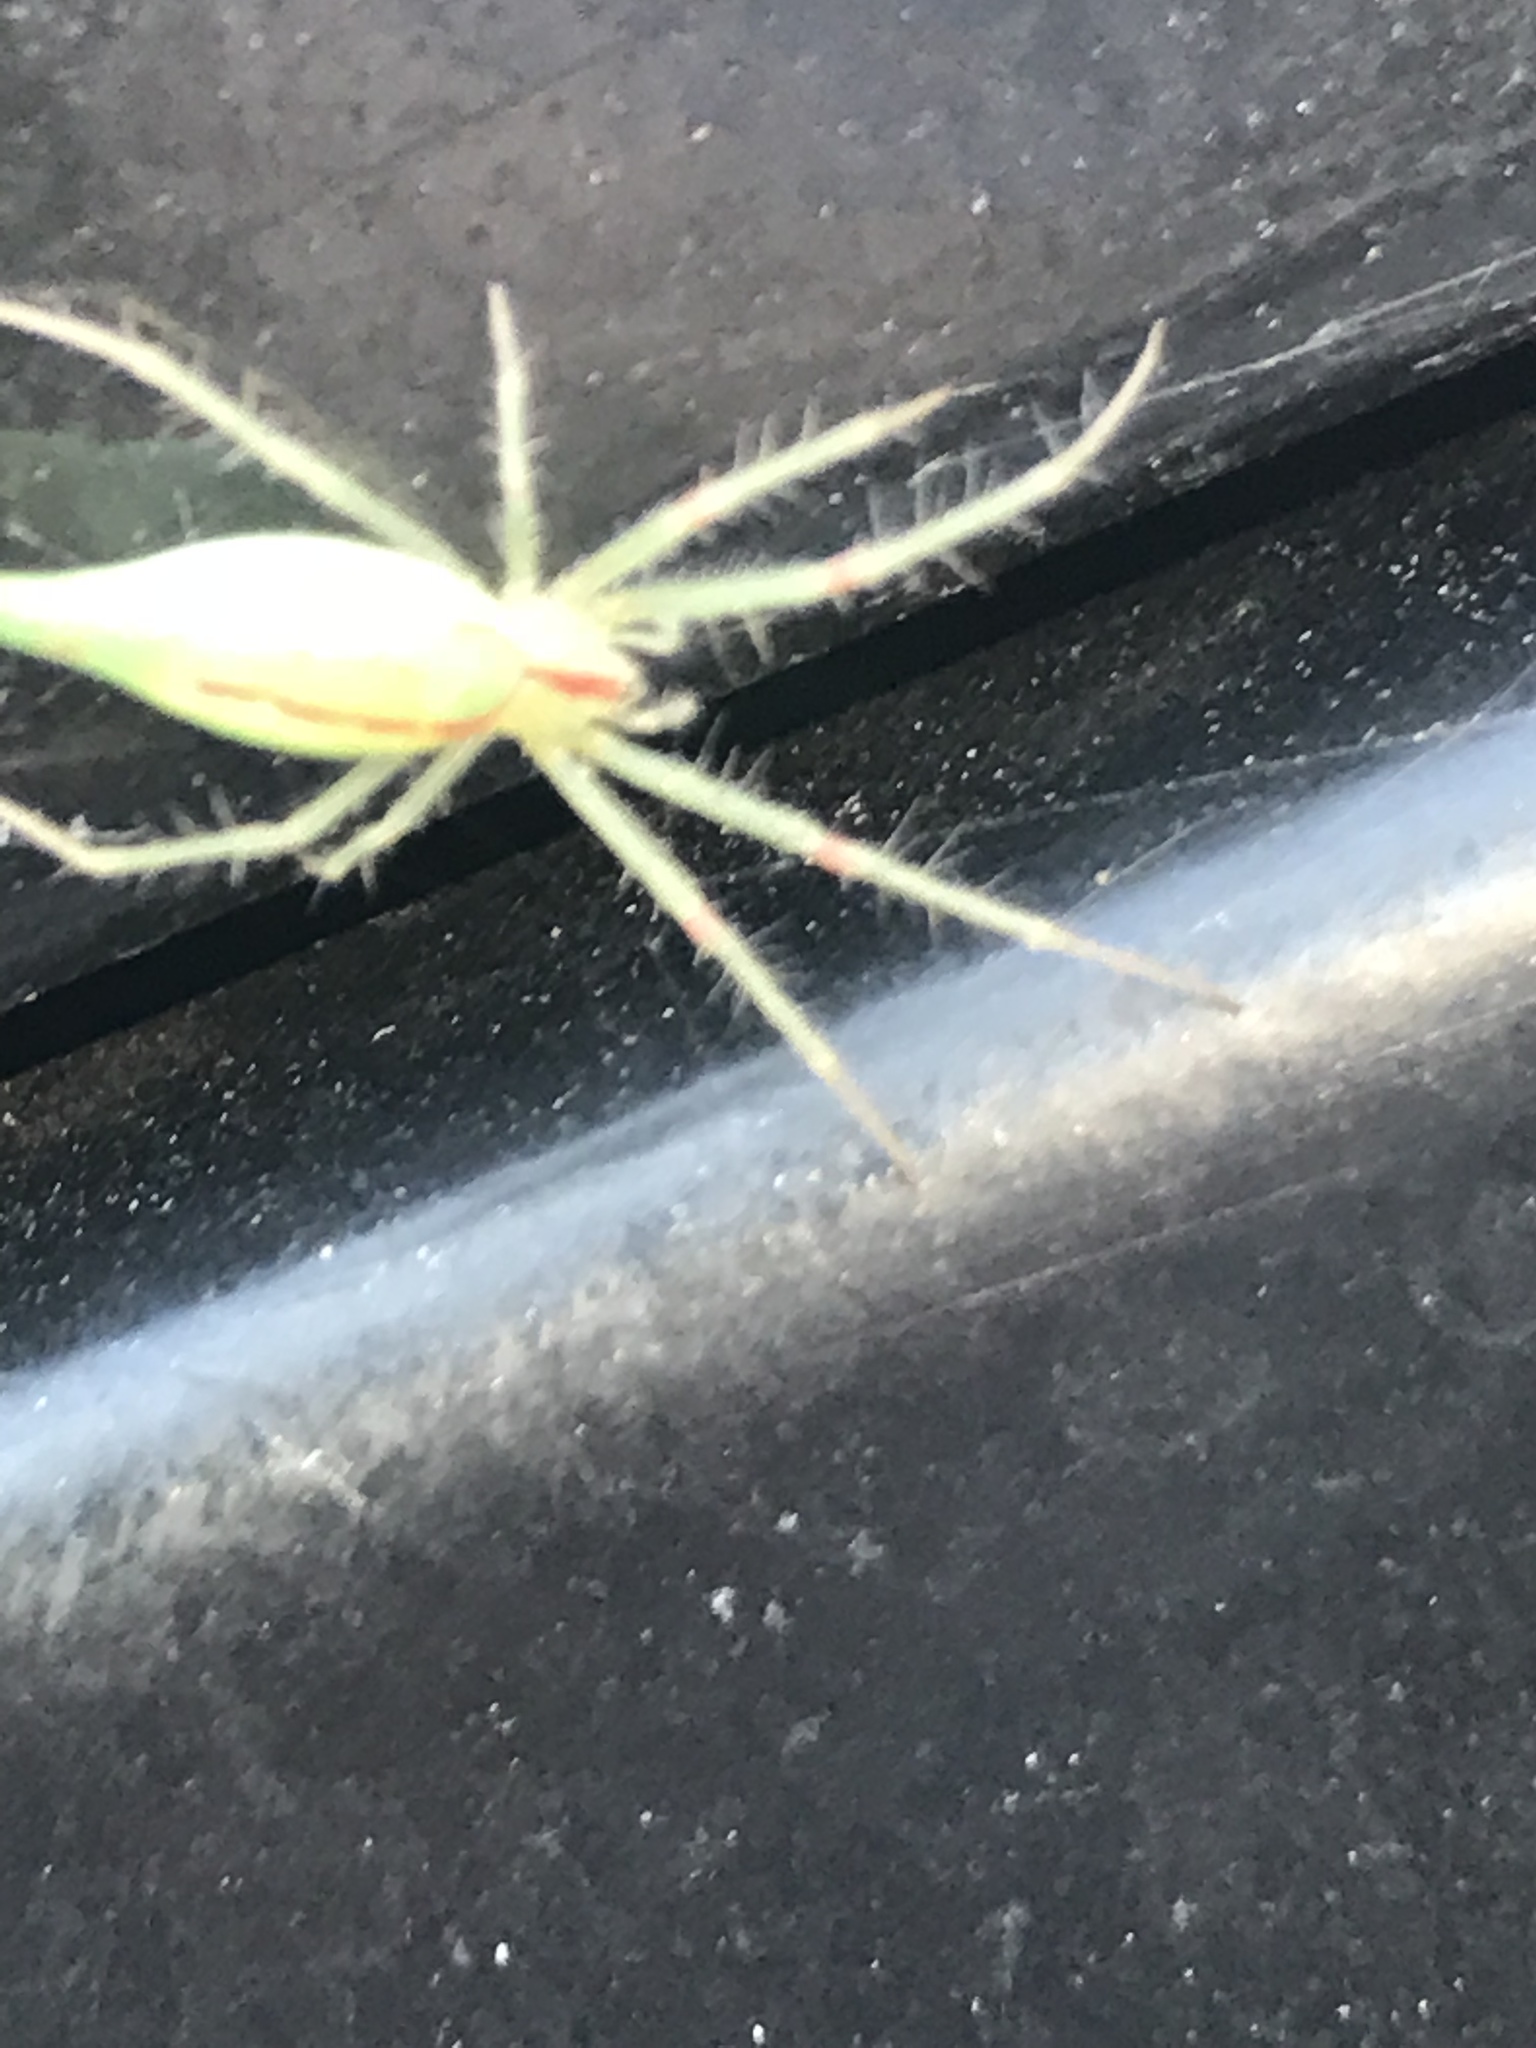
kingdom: Animalia
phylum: Arthropoda
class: Arachnida
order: Araneae
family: Araneidae
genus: Araneus
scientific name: Araneus talipedatus
